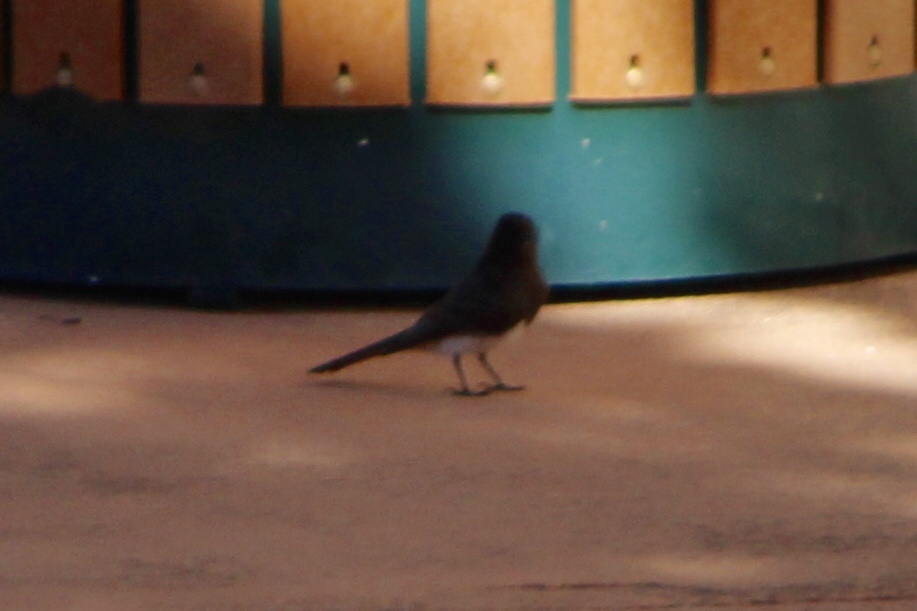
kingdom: Animalia
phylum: Chordata
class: Aves
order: Passeriformes
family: Tyrannidae
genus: Sayornis
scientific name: Sayornis nigricans
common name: Black phoebe
